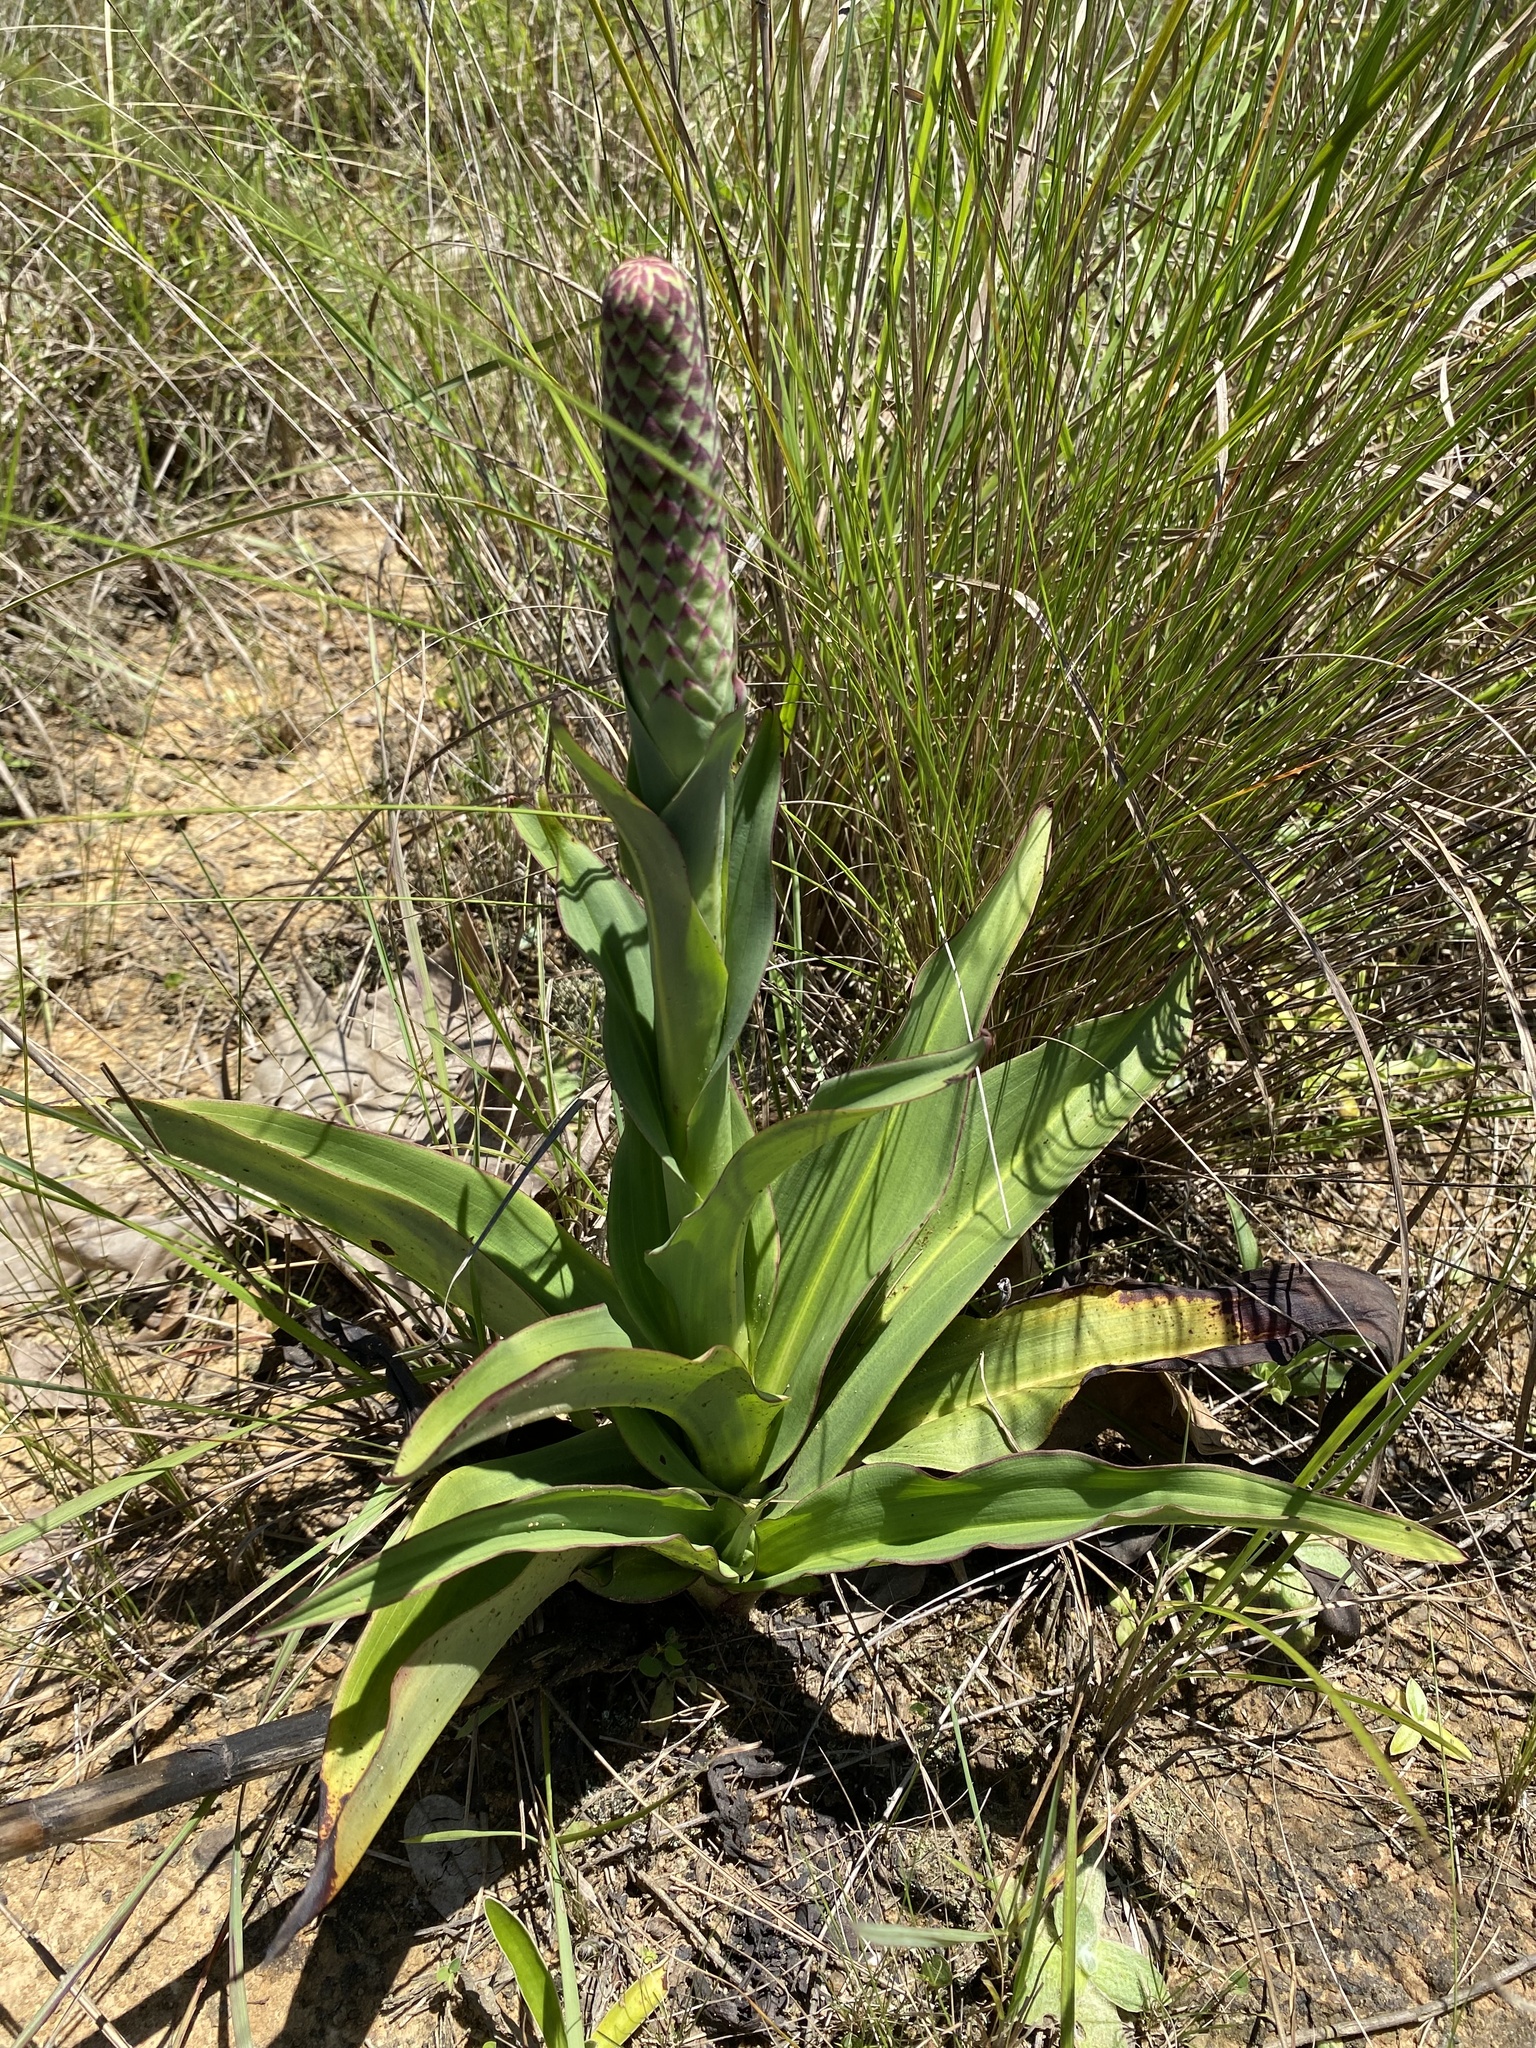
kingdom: Plantae
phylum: Tracheophyta
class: Liliopsida
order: Asparagales
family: Orchidaceae
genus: Disa
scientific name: Disa chrysostachya
